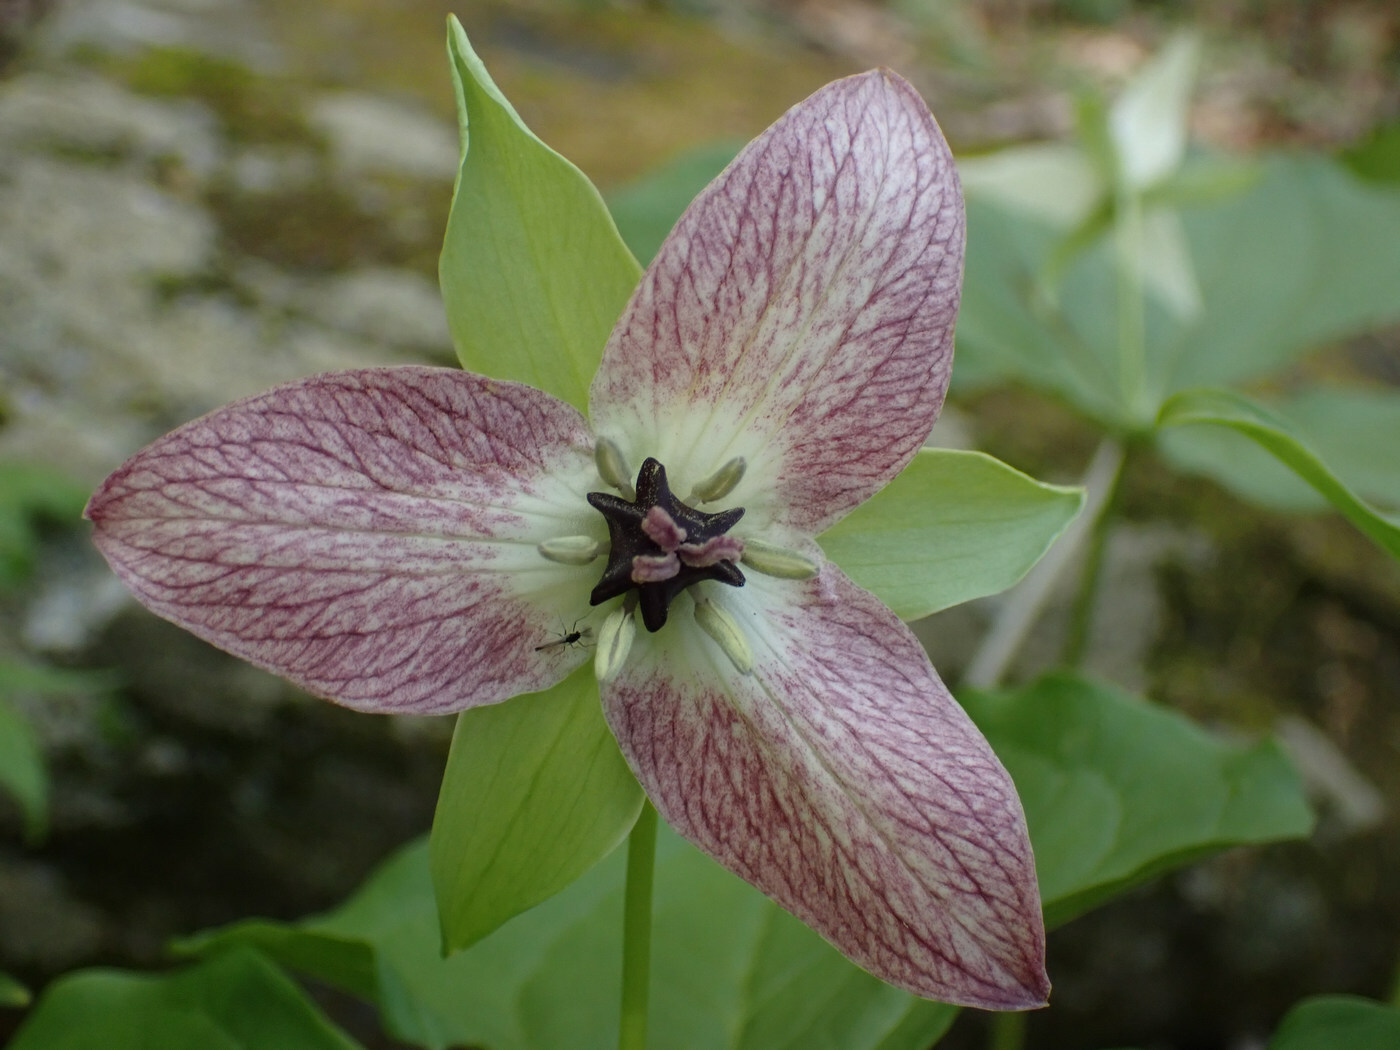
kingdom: Plantae
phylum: Tracheophyta
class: Liliopsida
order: Liliales
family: Melanthiaceae
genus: Trillium
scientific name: Trillium erectum
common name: Purple trillium
